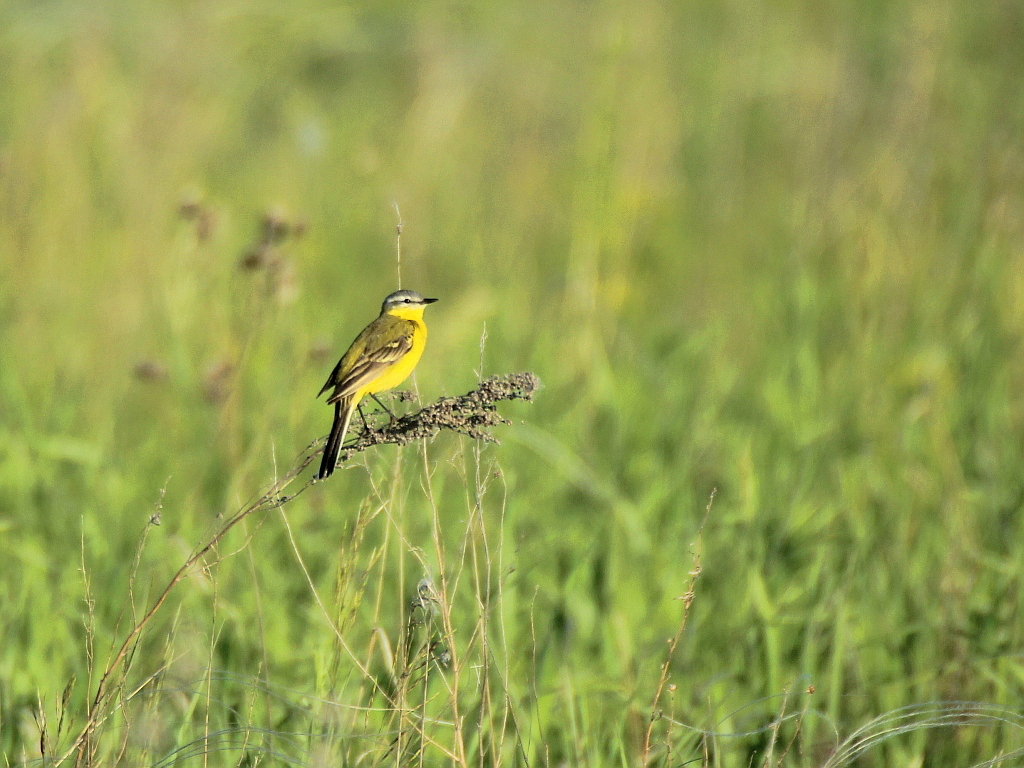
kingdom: Animalia
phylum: Chordata
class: Aves
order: Passeriformes
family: Motacillidae
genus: Motacilla
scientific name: Motacilla flava
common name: Western yellow wagtail
